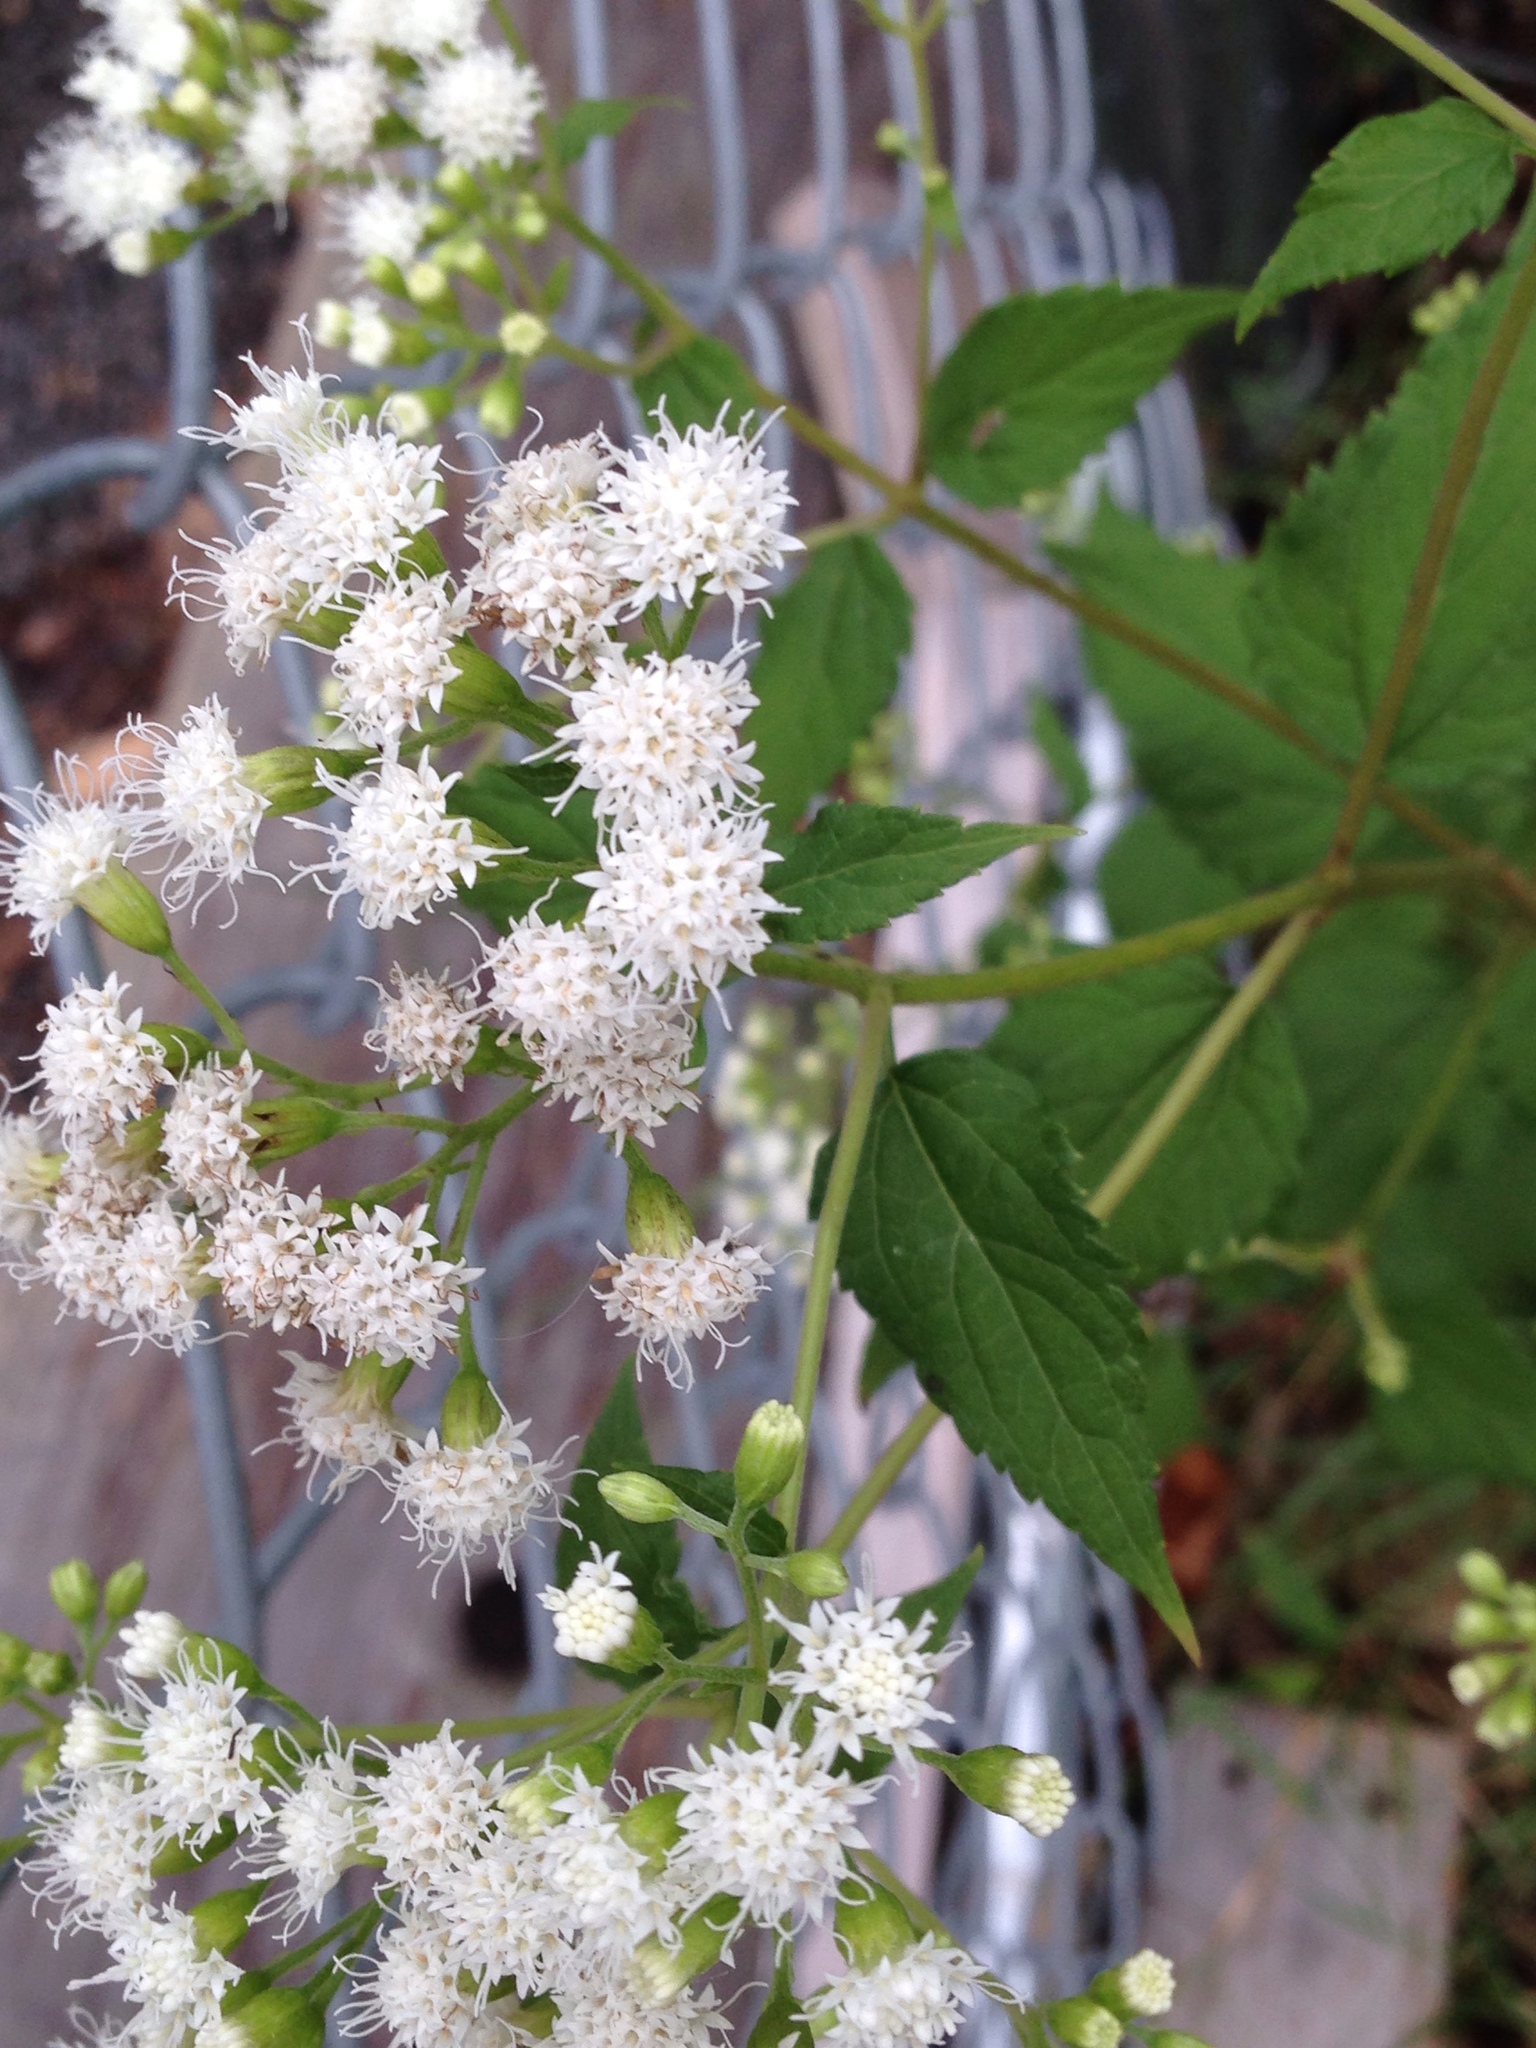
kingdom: Plantae
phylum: Tracheophyta
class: Magnoliopsida
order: Asterales
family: Asteraceae
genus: Ageratina
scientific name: Ageratina altissima
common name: White snakeroot
